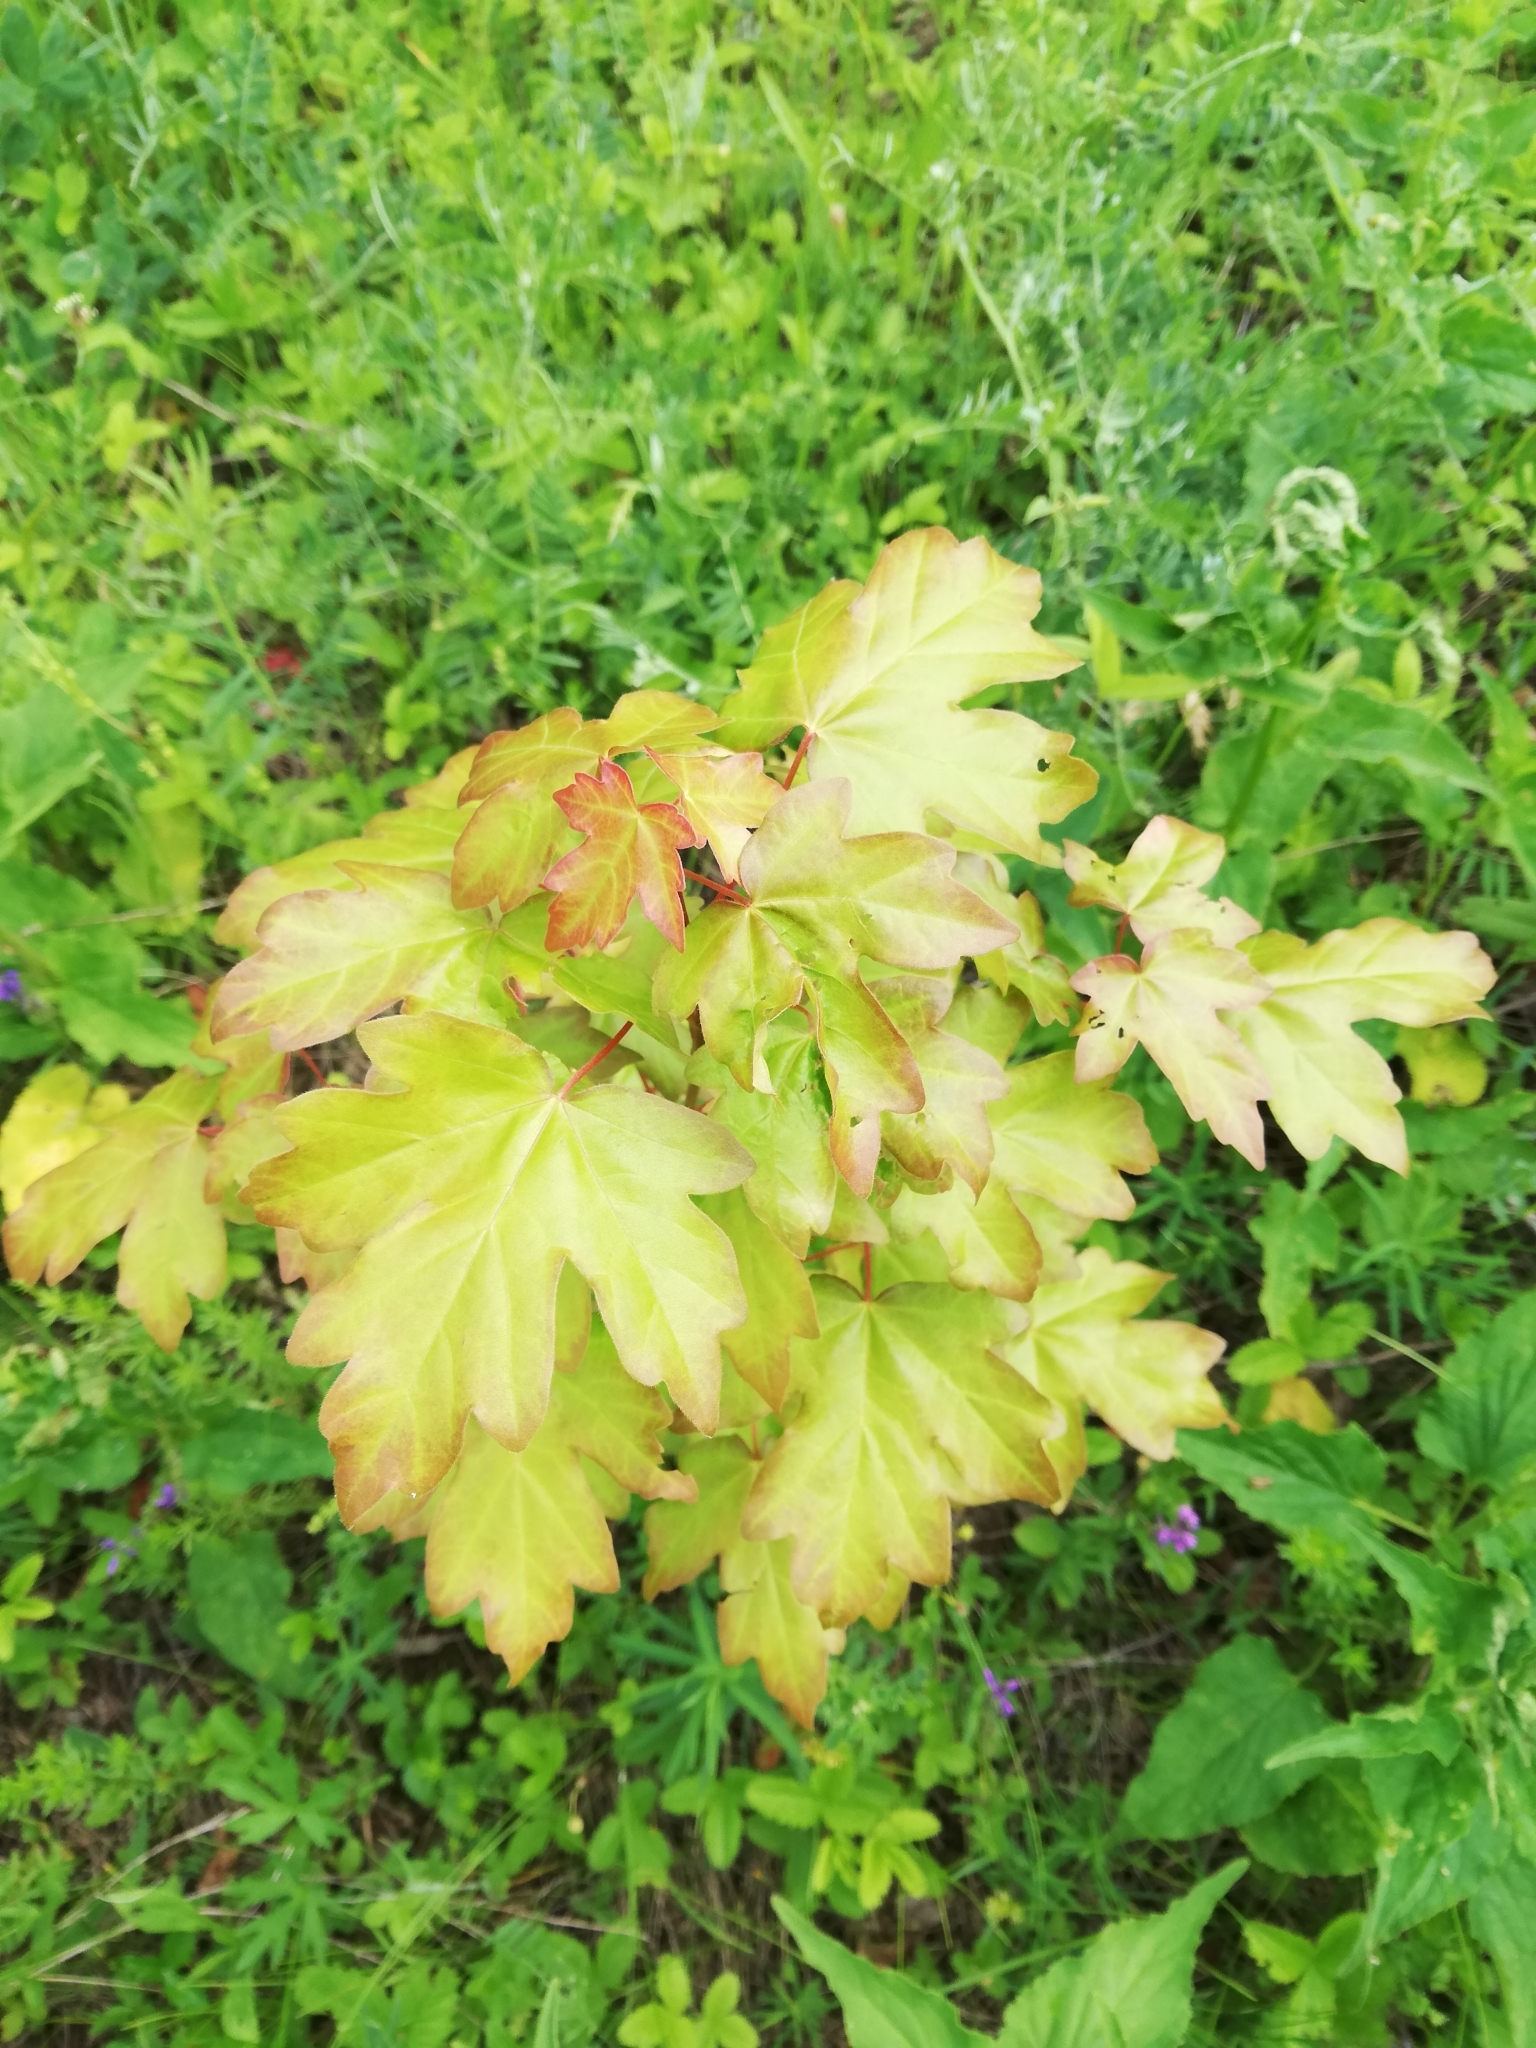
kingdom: Plantae
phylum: Tracheophyta
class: Magnoliopsida
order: Sapindales
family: Sapindaceae
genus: Acer
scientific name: Acer campestre
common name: Field maple
